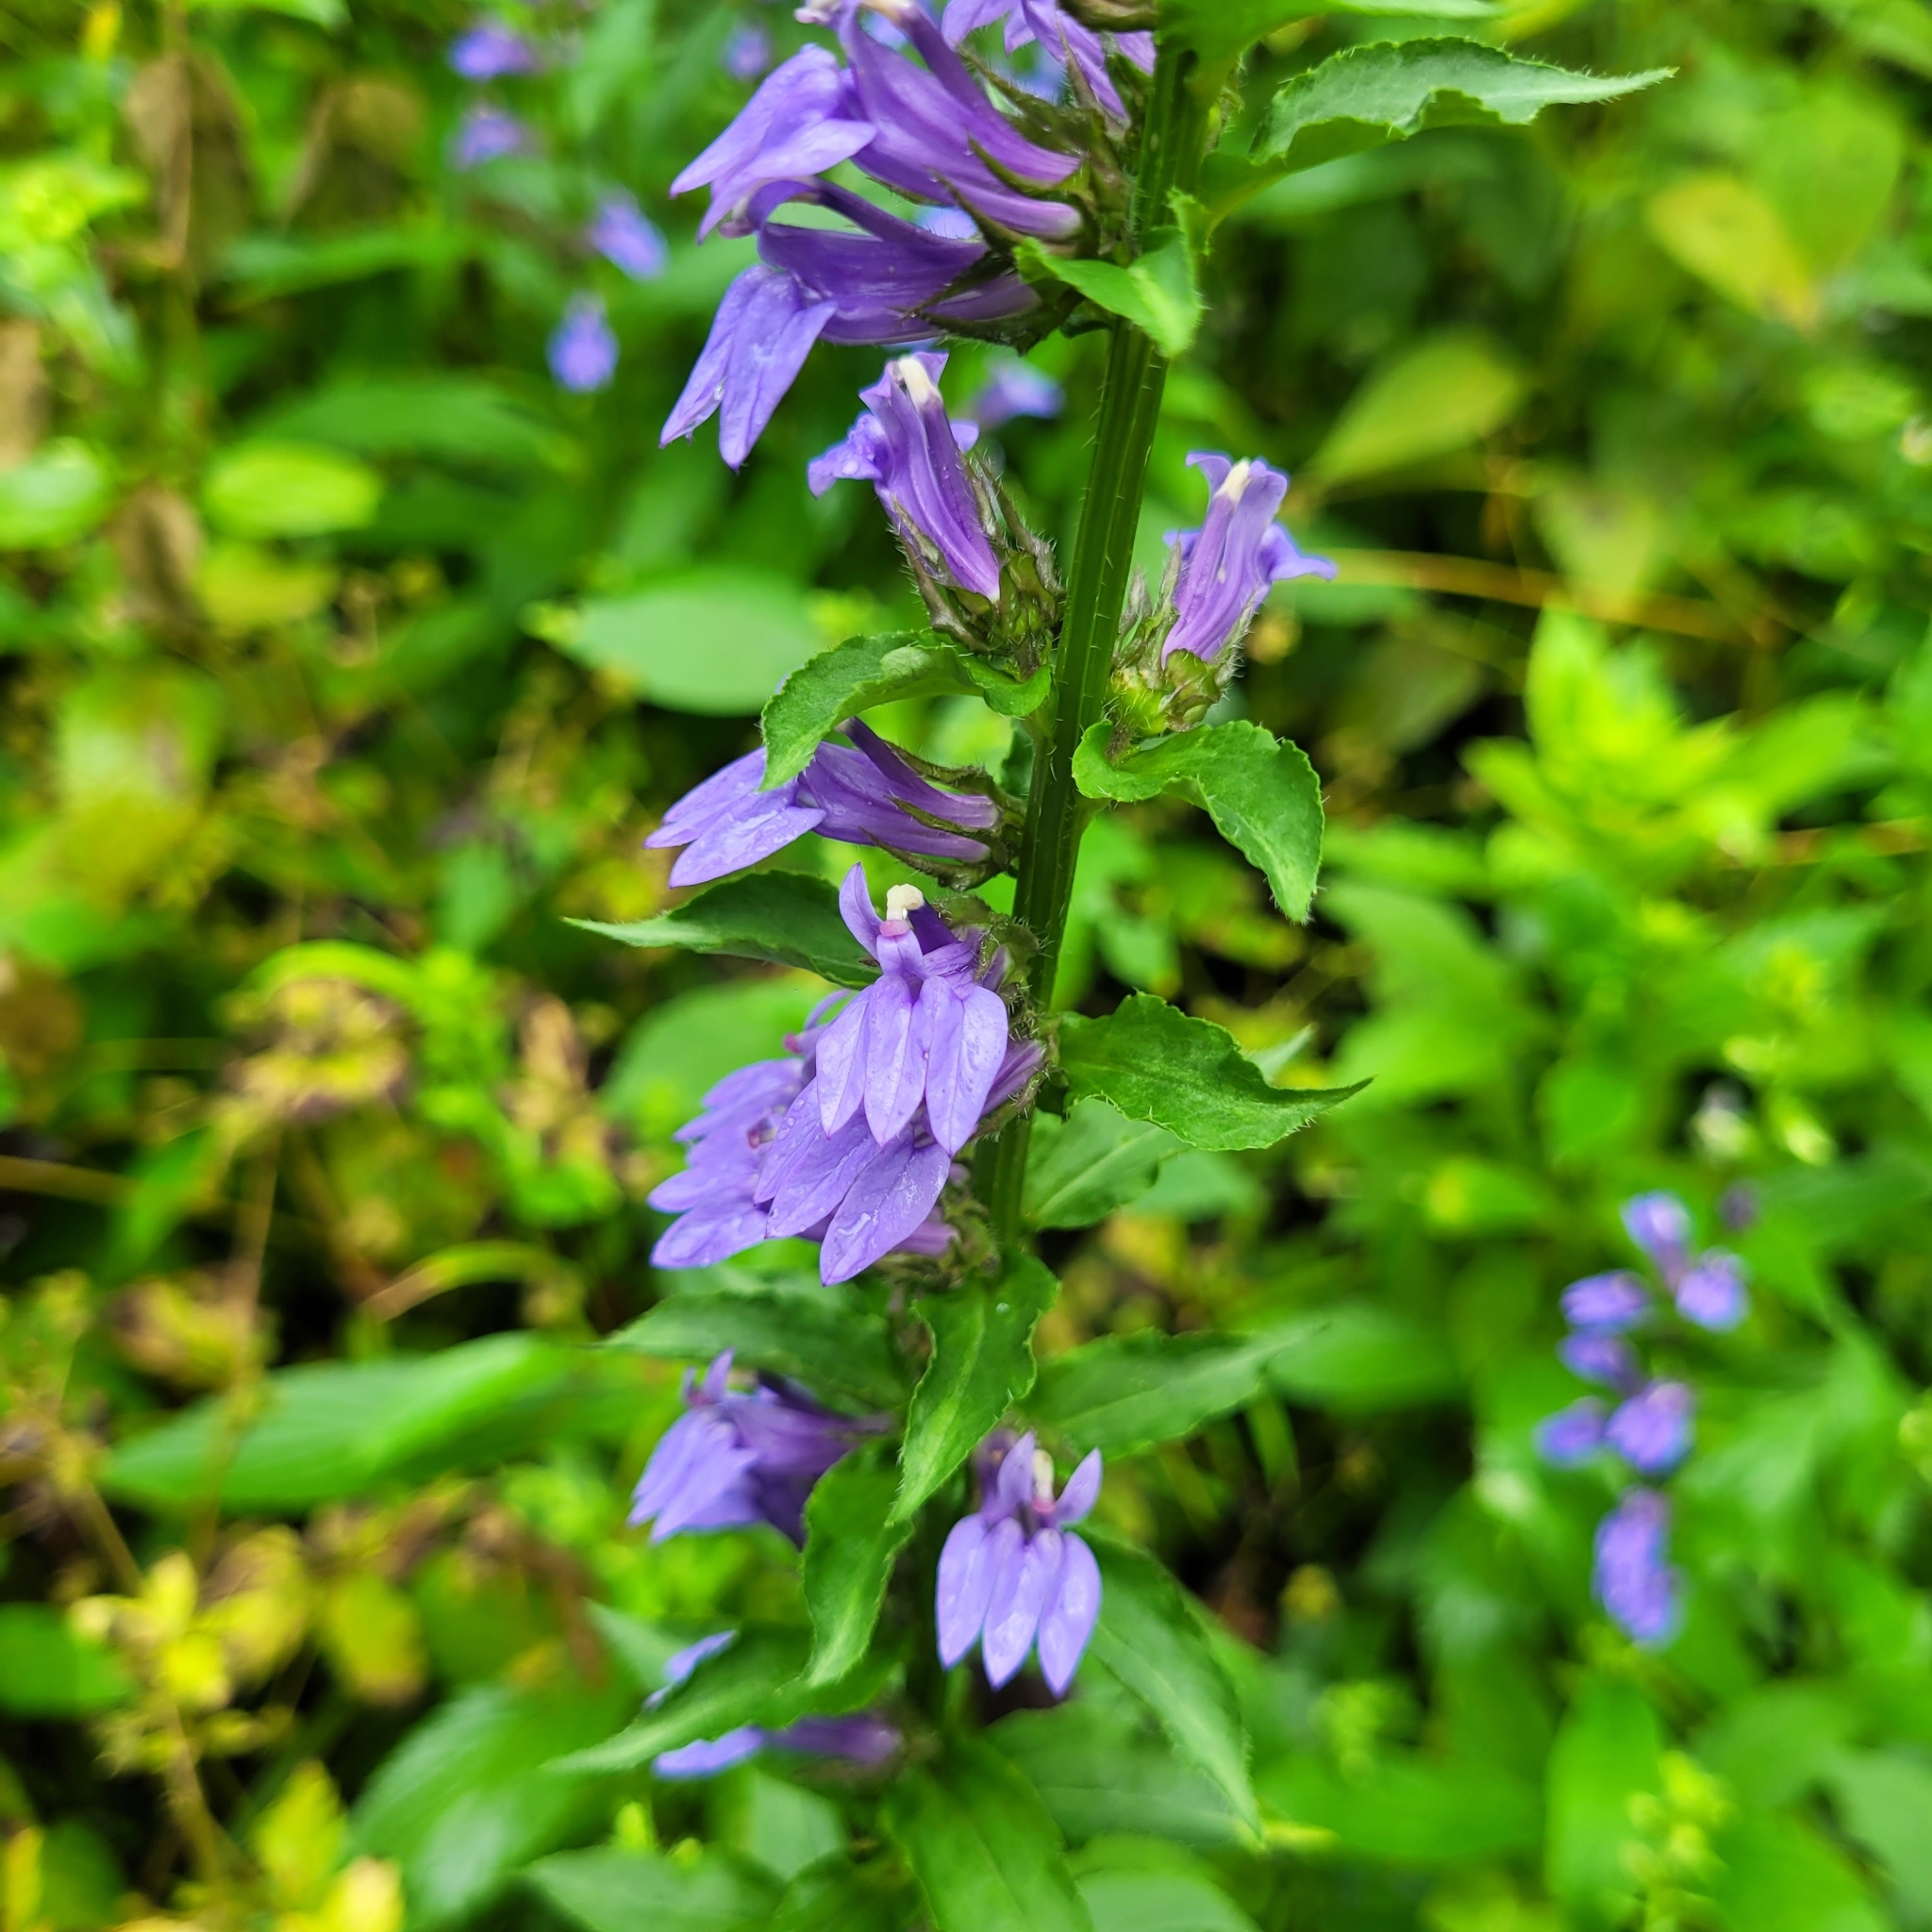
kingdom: Plantae
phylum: Tracheophyta
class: Magnoliopsida
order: Asterales
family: Campanulaceae
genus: Lobelia
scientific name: Lobelia siphilitica
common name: Great lobelia
